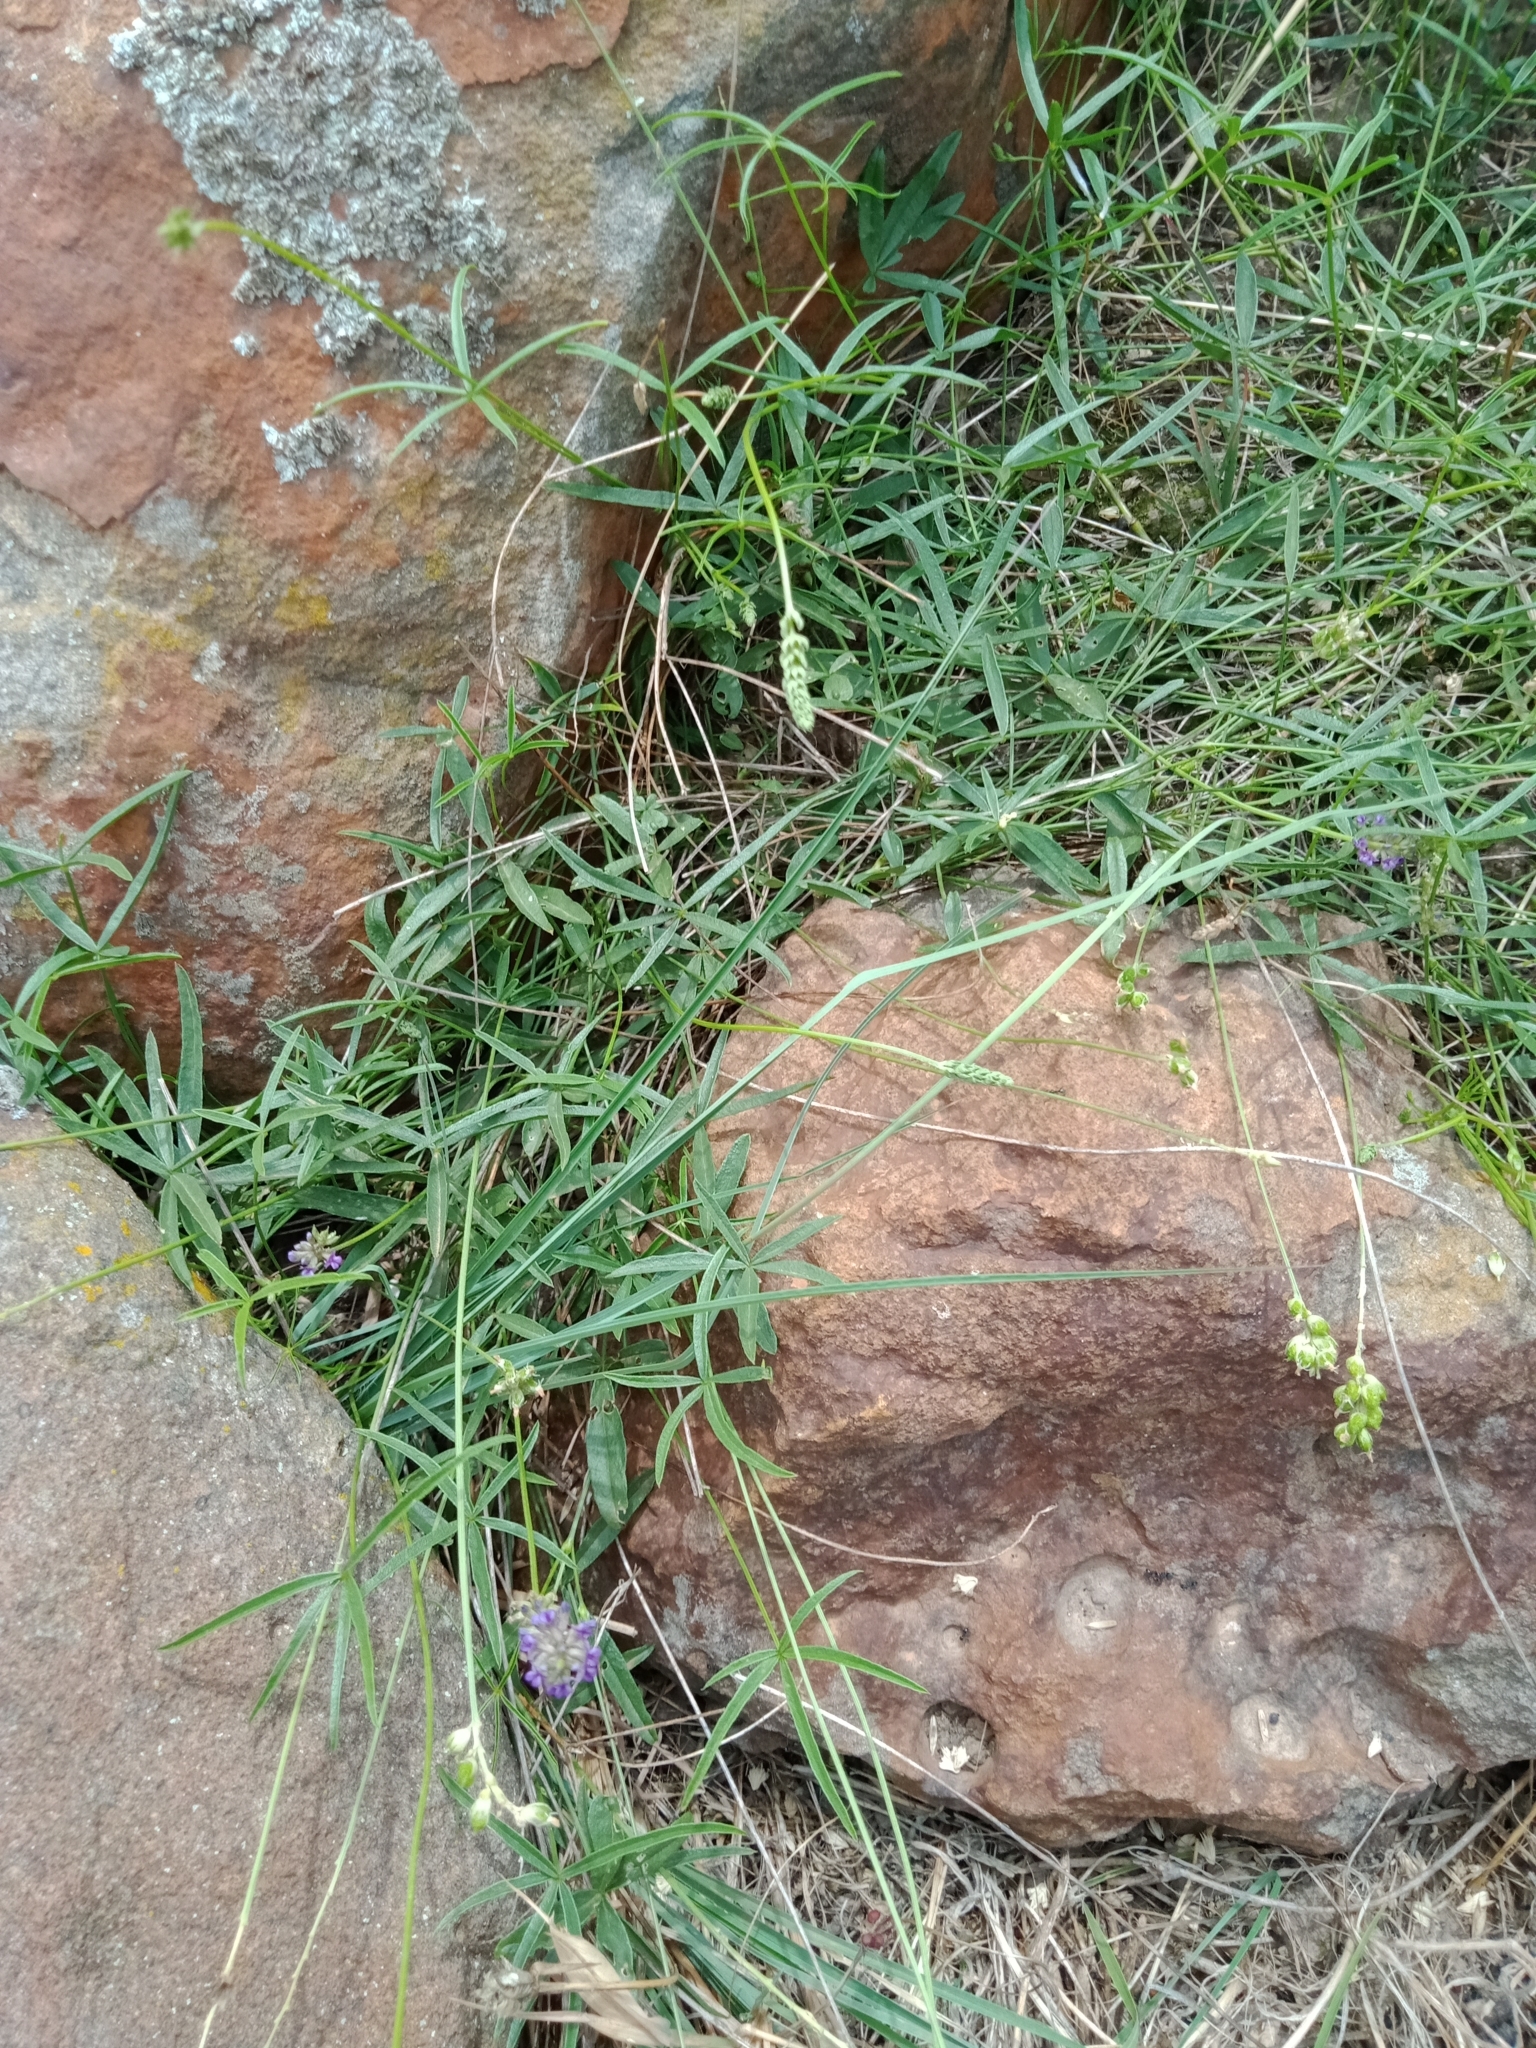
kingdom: Plantae
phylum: Tracheophyta
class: Magnoliopsida
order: Fabales
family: Fabaceae
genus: Cullen
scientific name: Cullen tenax
